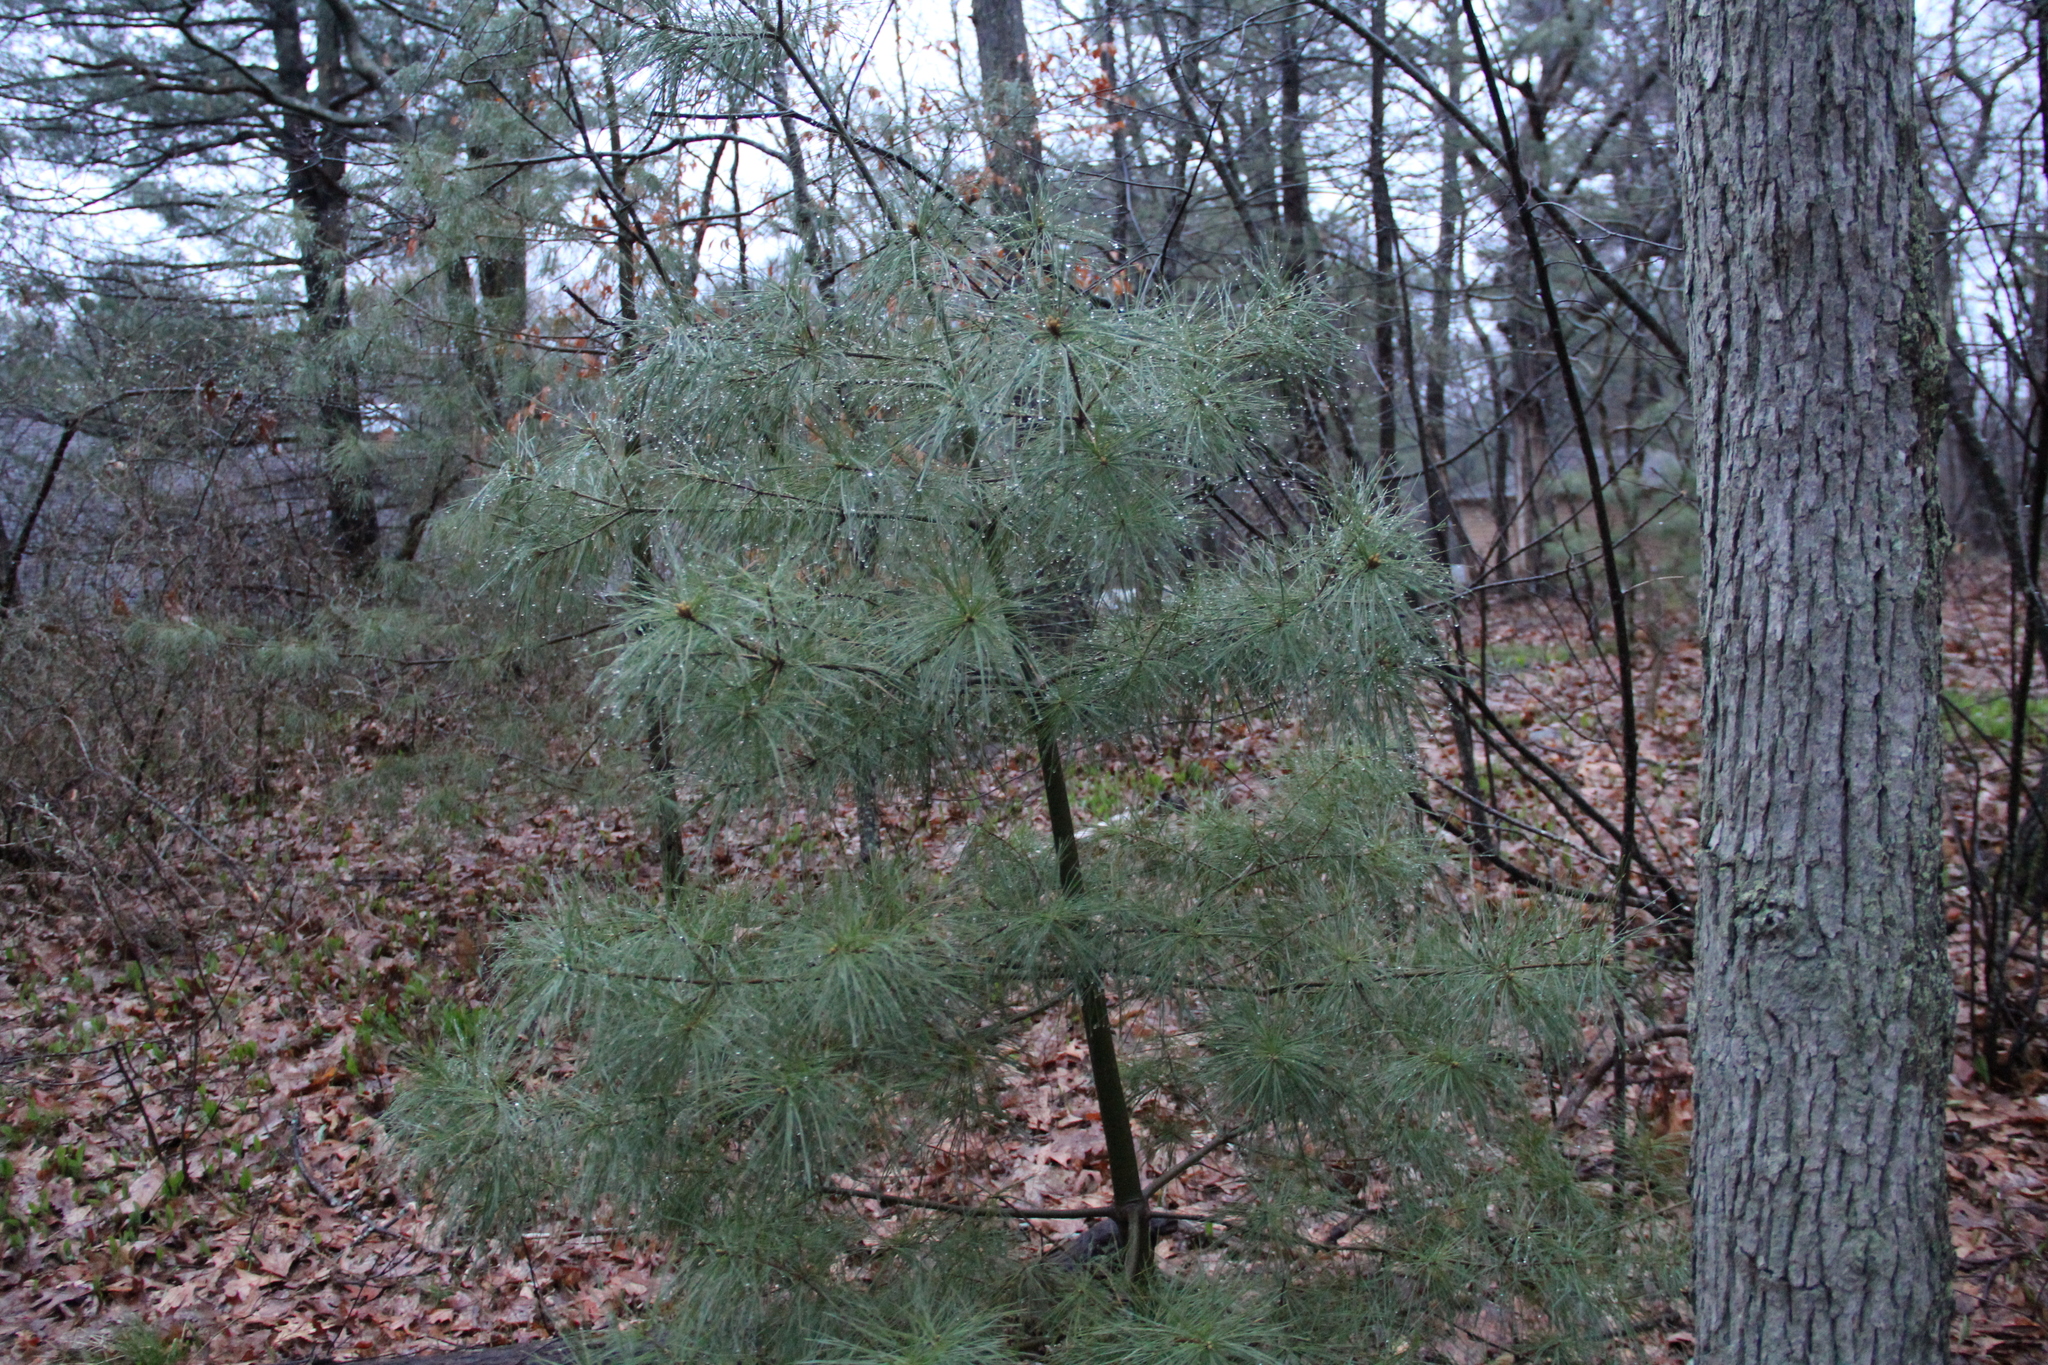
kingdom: Plantae
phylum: Tracheophyta
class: Pinopsida
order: Pinales
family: Pinaceae
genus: Pinus
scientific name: Pinus strobus
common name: Weymouth pine
